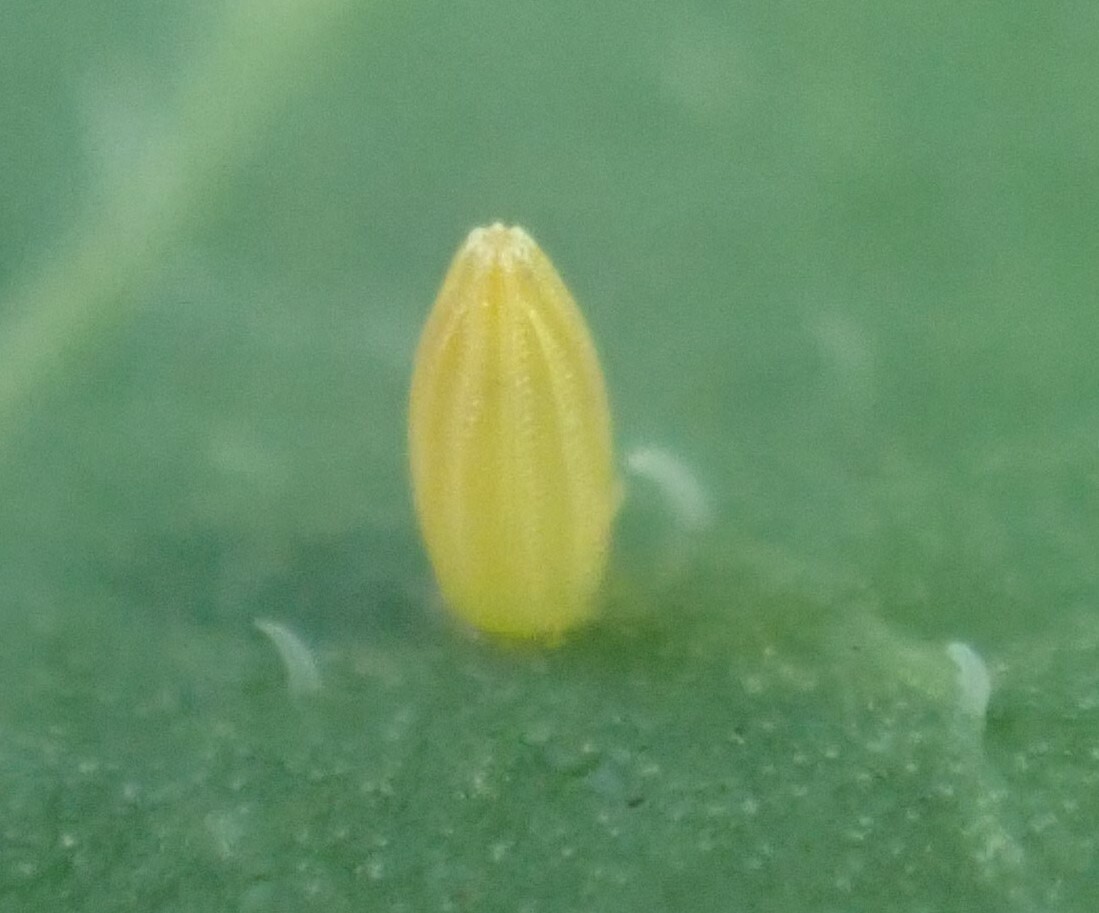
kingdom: Animalia
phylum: Arthropoda
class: Insecta
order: Lepidoptera
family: Pieridae
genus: Pieris
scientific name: Pieris rapae
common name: Small white
